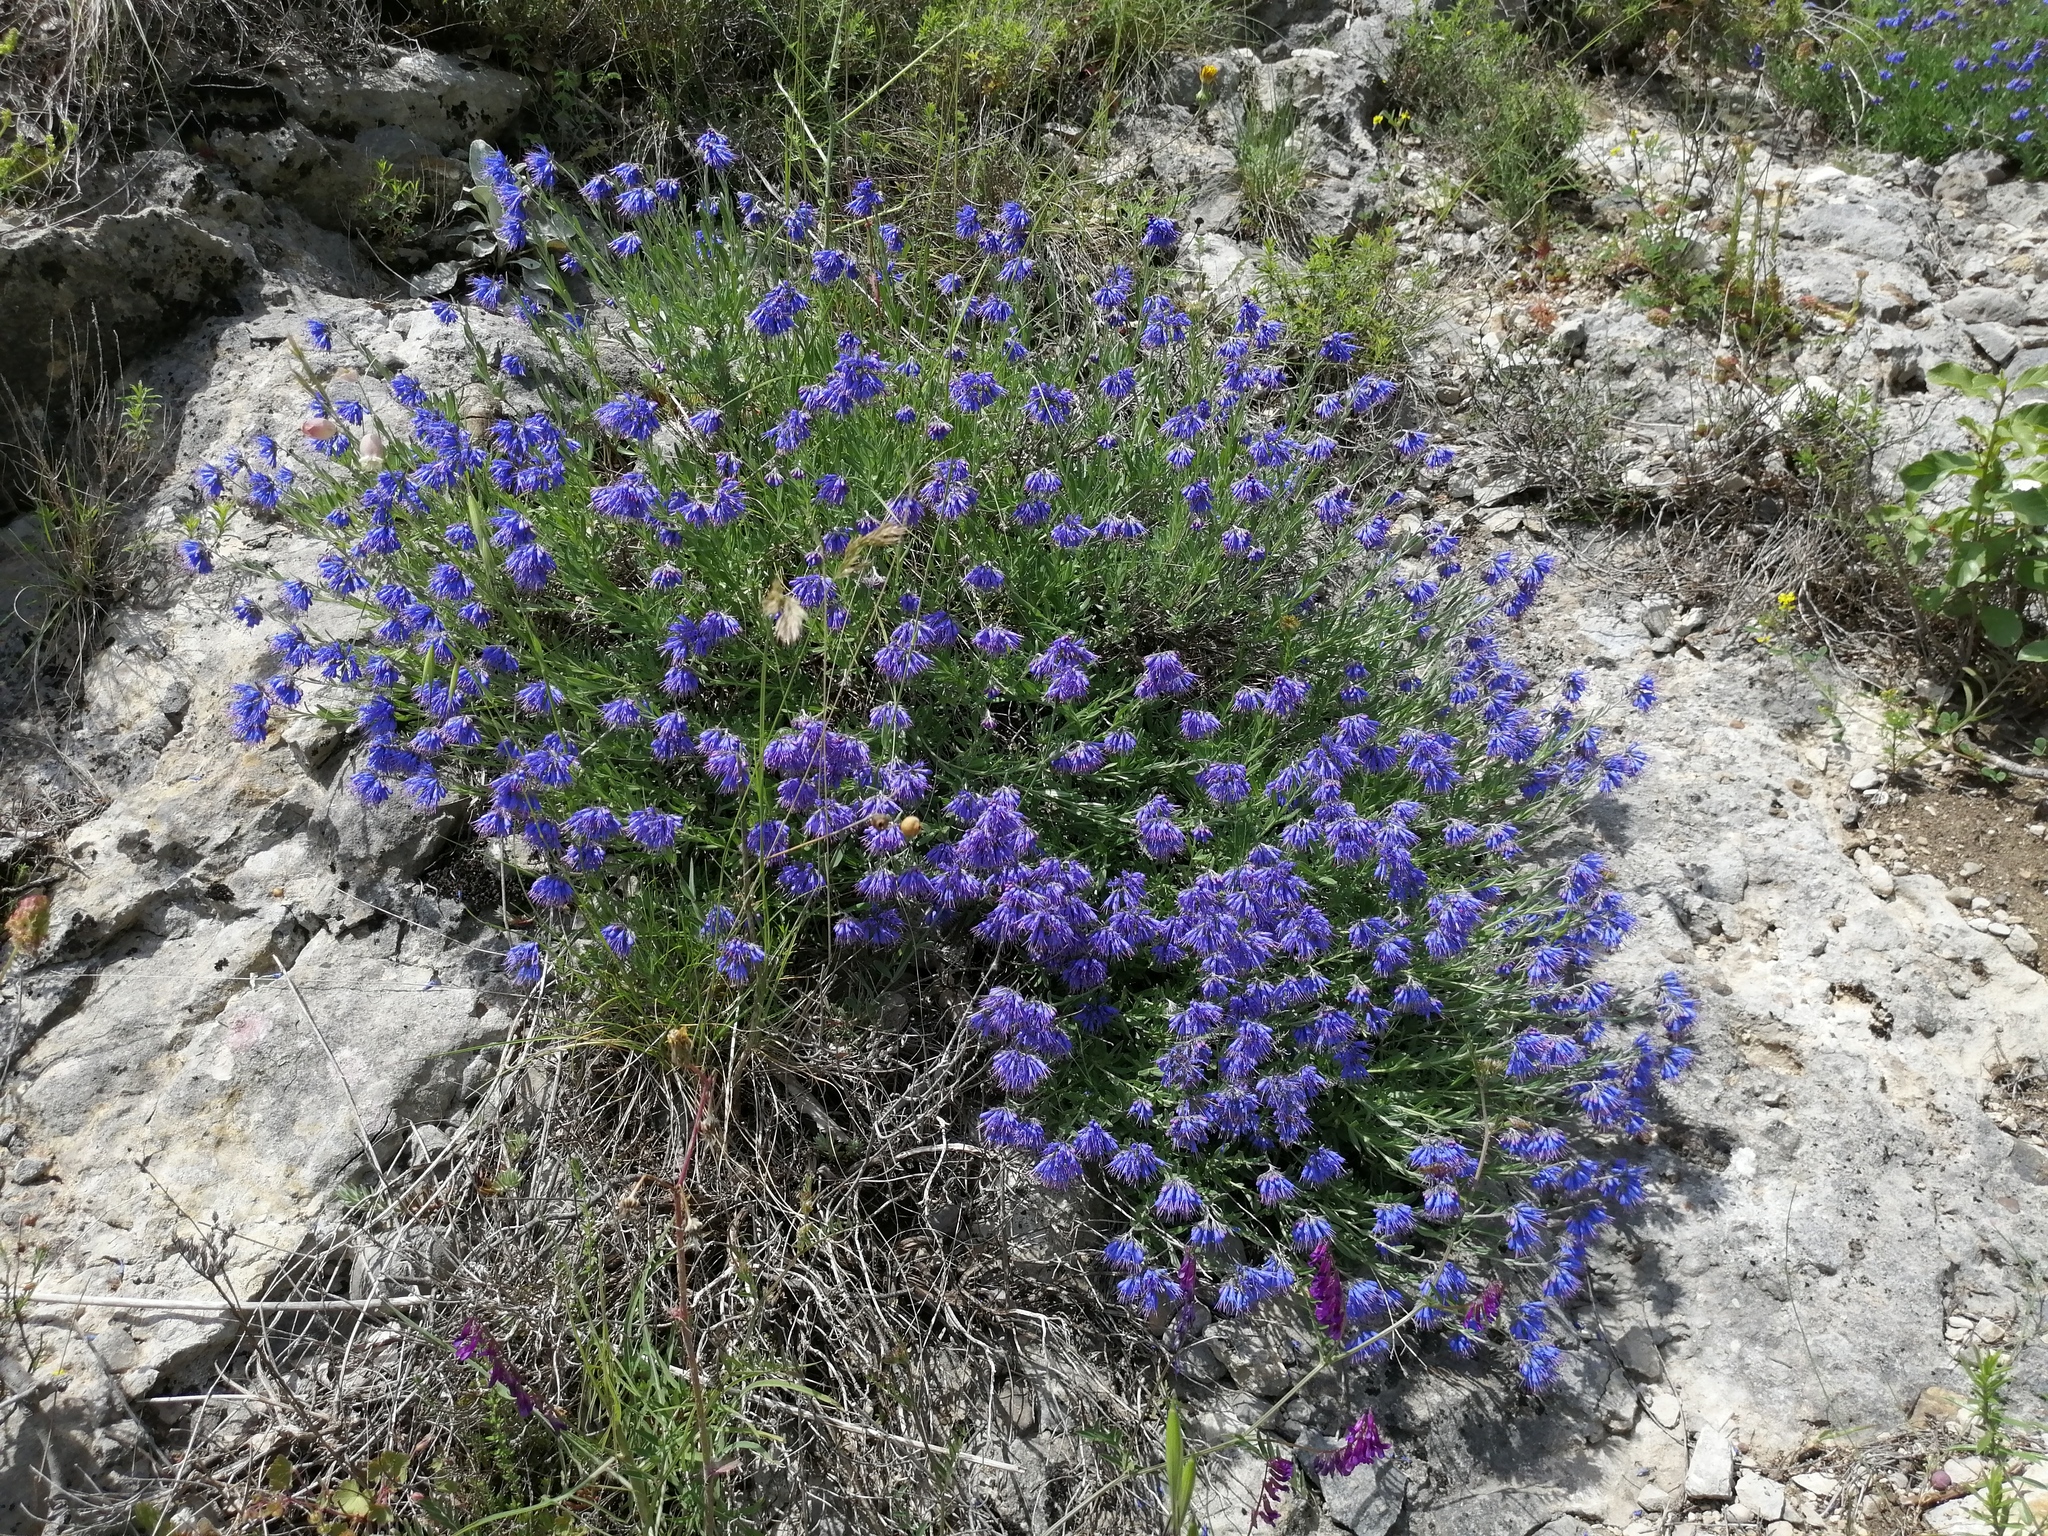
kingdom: Plantae
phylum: Tracheophyta
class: Magnoliopsida
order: Boraginales
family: Boraginaceae
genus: Moltkia
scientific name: Moltkia petraea
